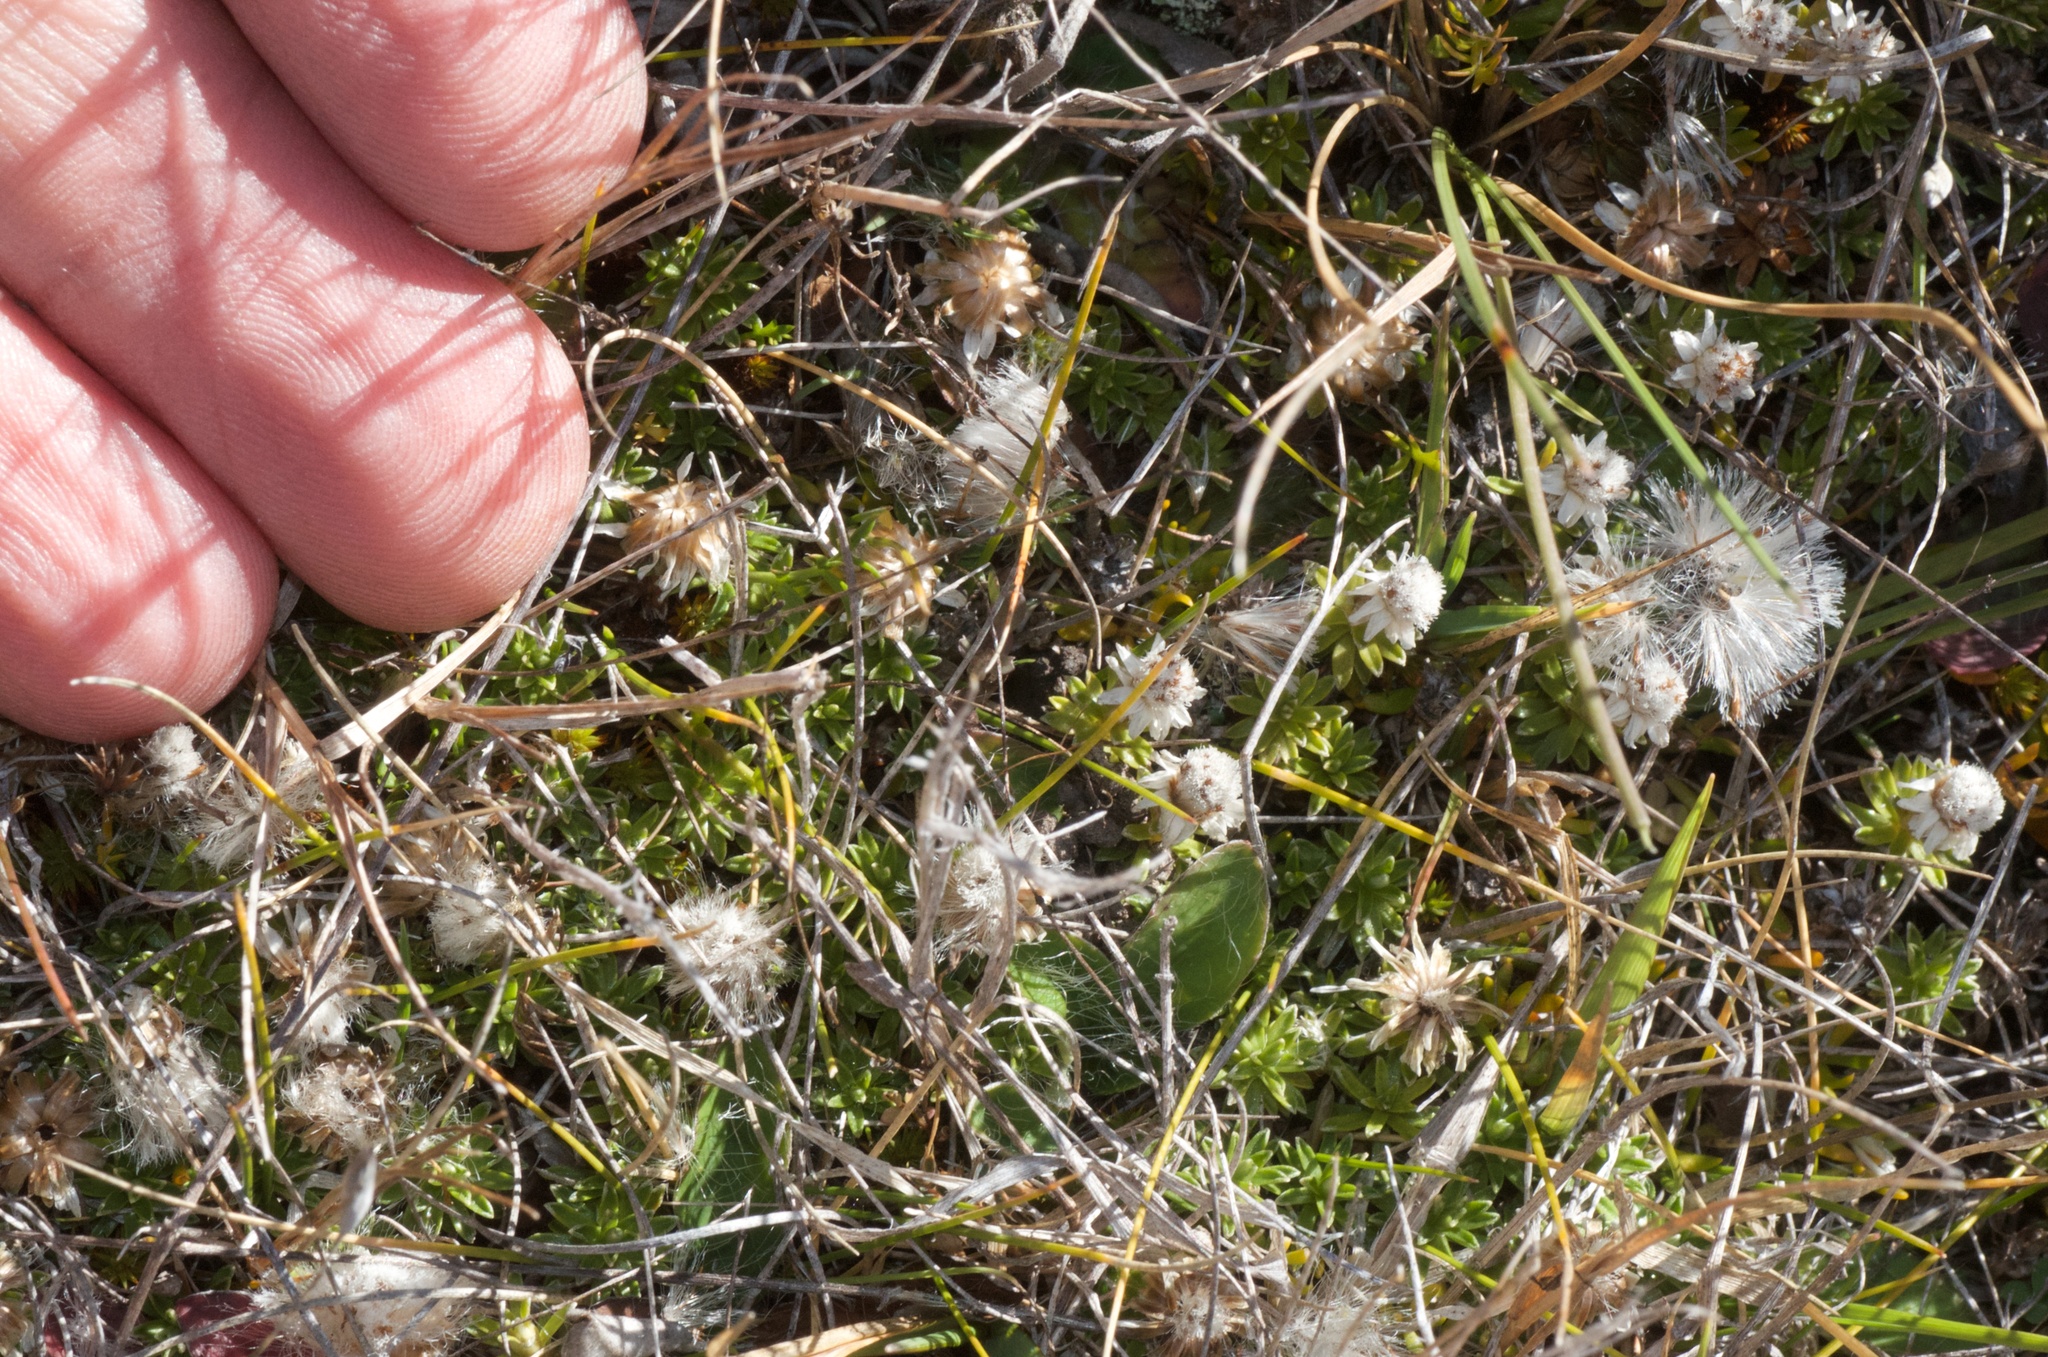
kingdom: Plantae
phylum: Tracheophyta
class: Magnoliopsida
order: Asterales
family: Asteraceae
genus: Raoulia
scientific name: Raoulia subsericea
